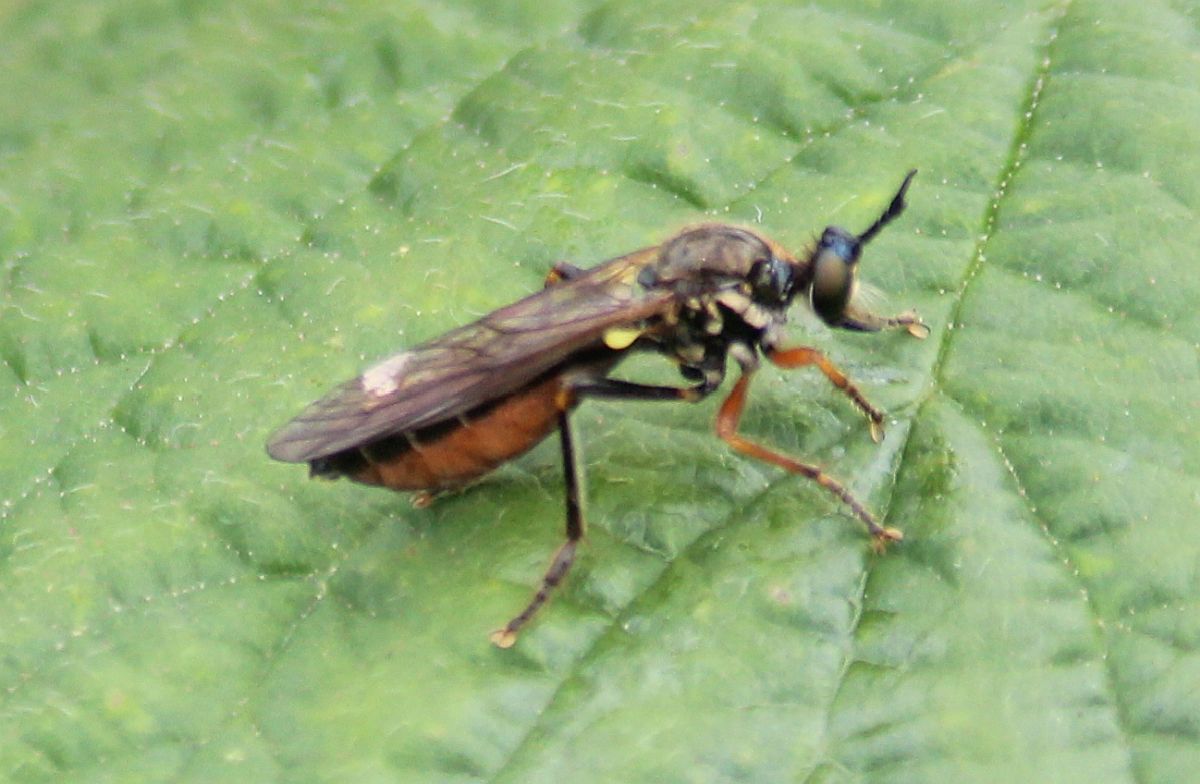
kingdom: Animalia
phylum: Arthropoda
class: Insecta
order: Diptera
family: Asilidae
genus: Dioctria
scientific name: Dioctria rufipes
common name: Common red-legged robberfly
